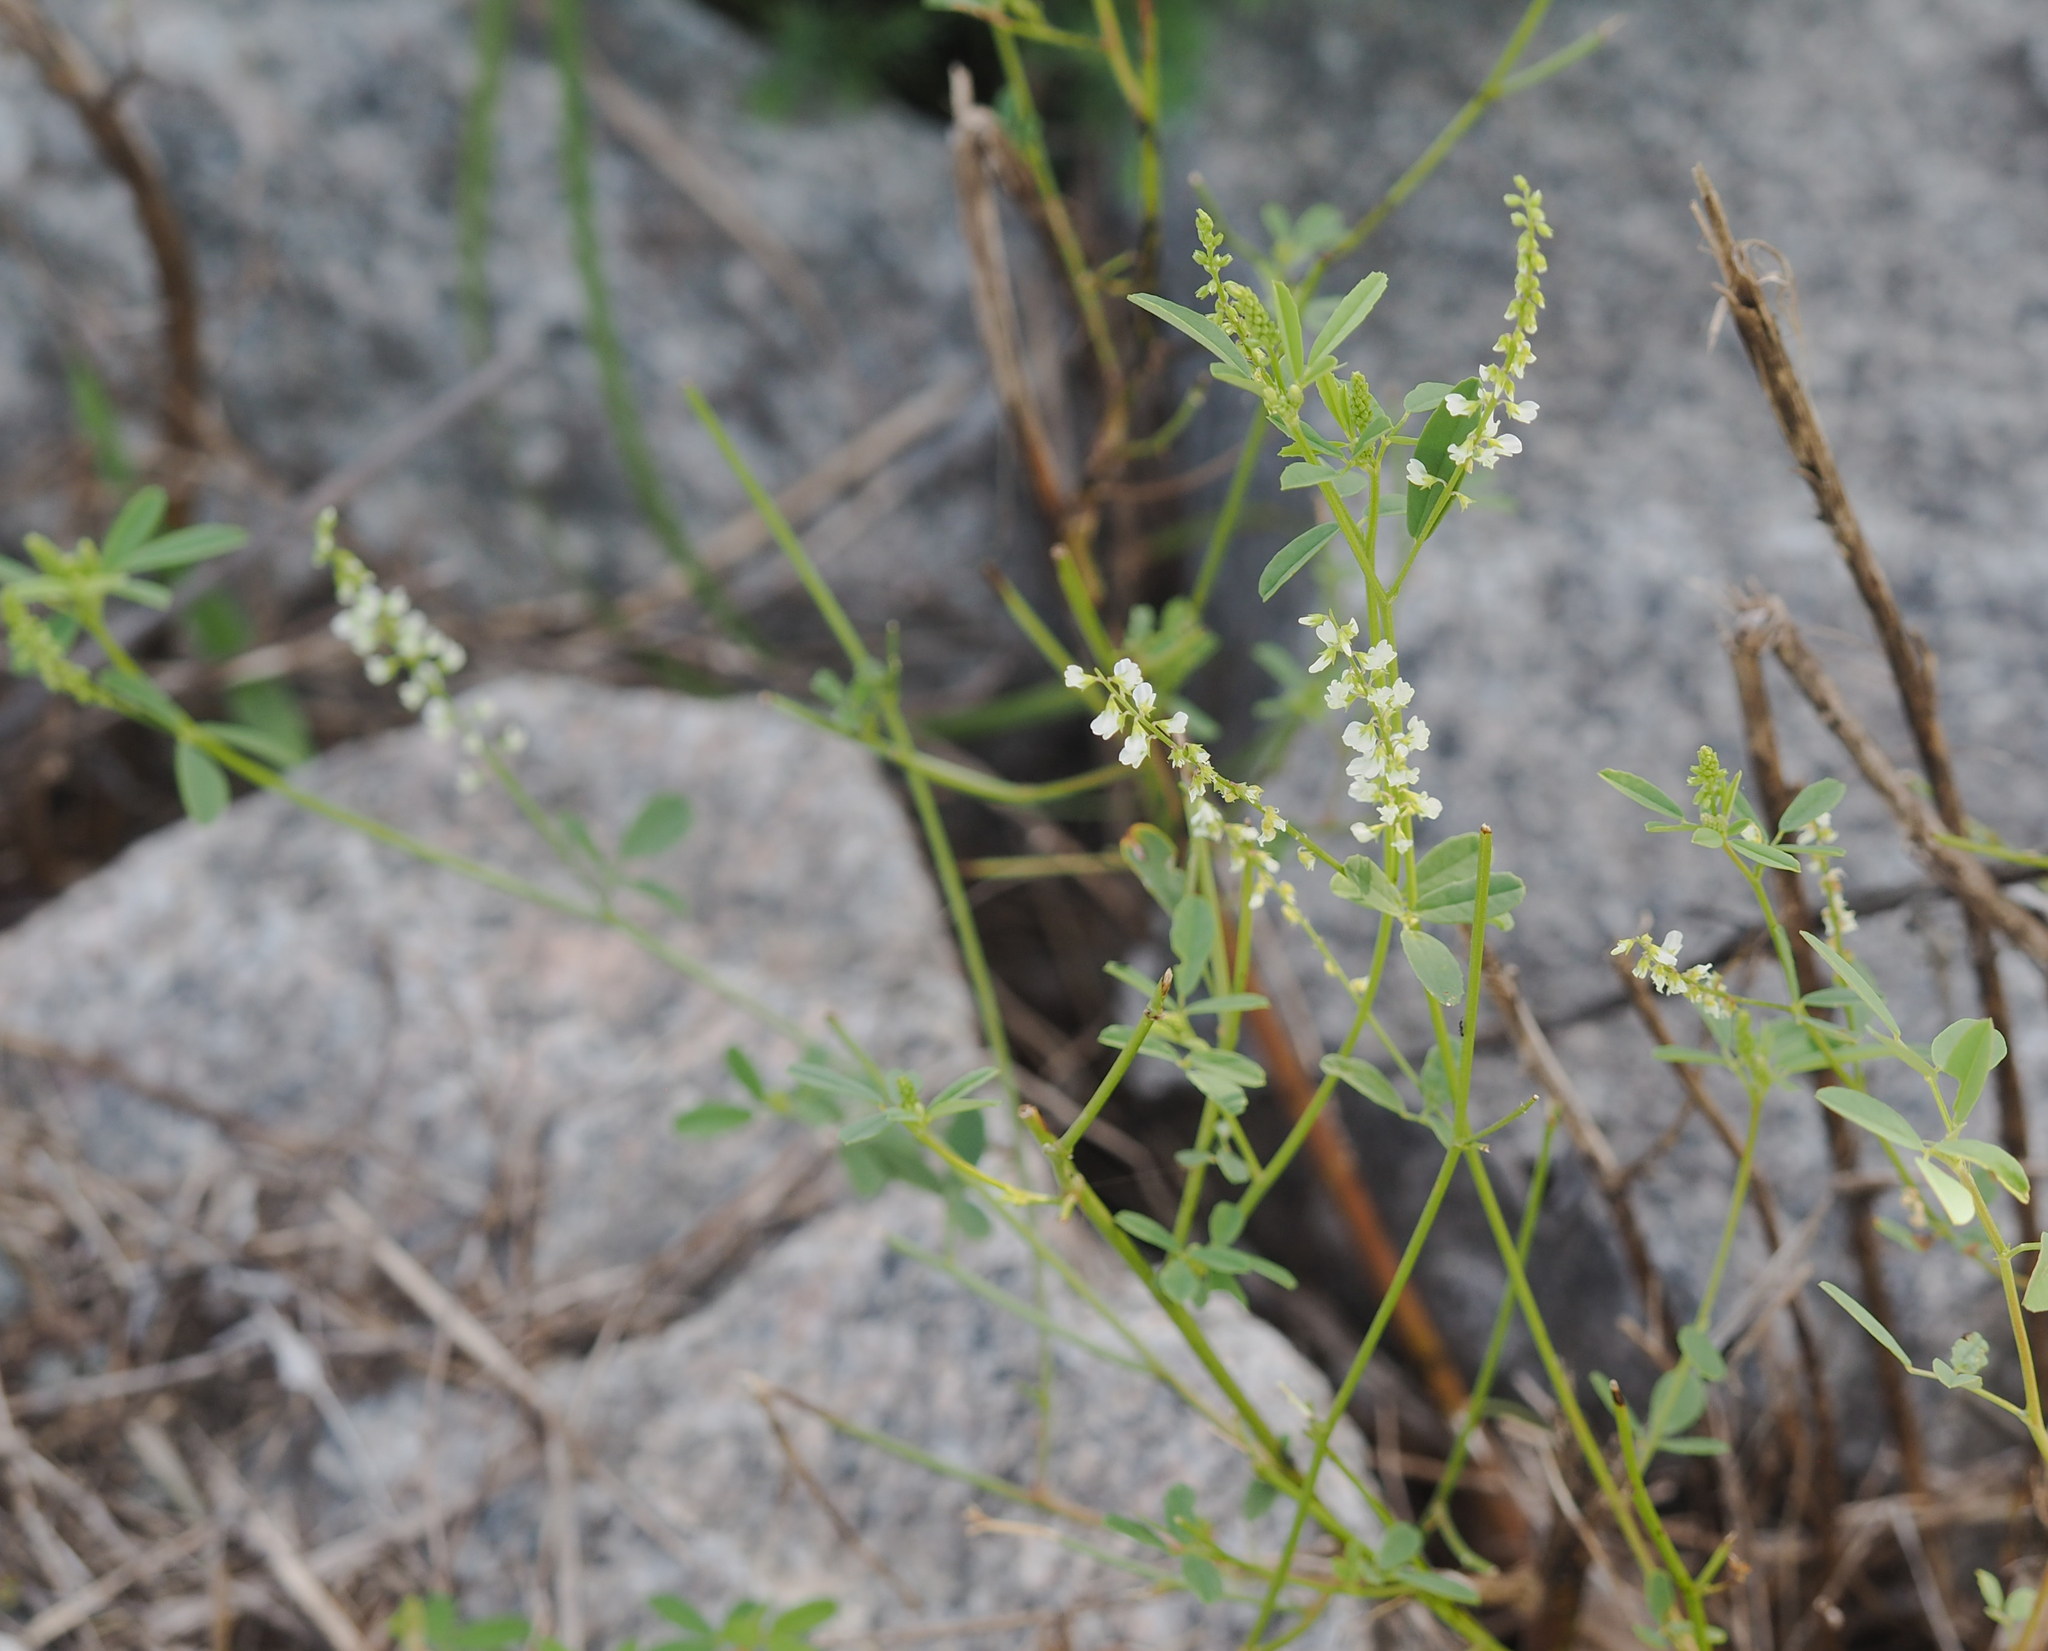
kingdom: Plantae
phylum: Tracheophyta
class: Magnoliopsida
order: Fabales
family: Fabaceae
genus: Melilotus
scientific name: Melilotus albus
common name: White melilot
